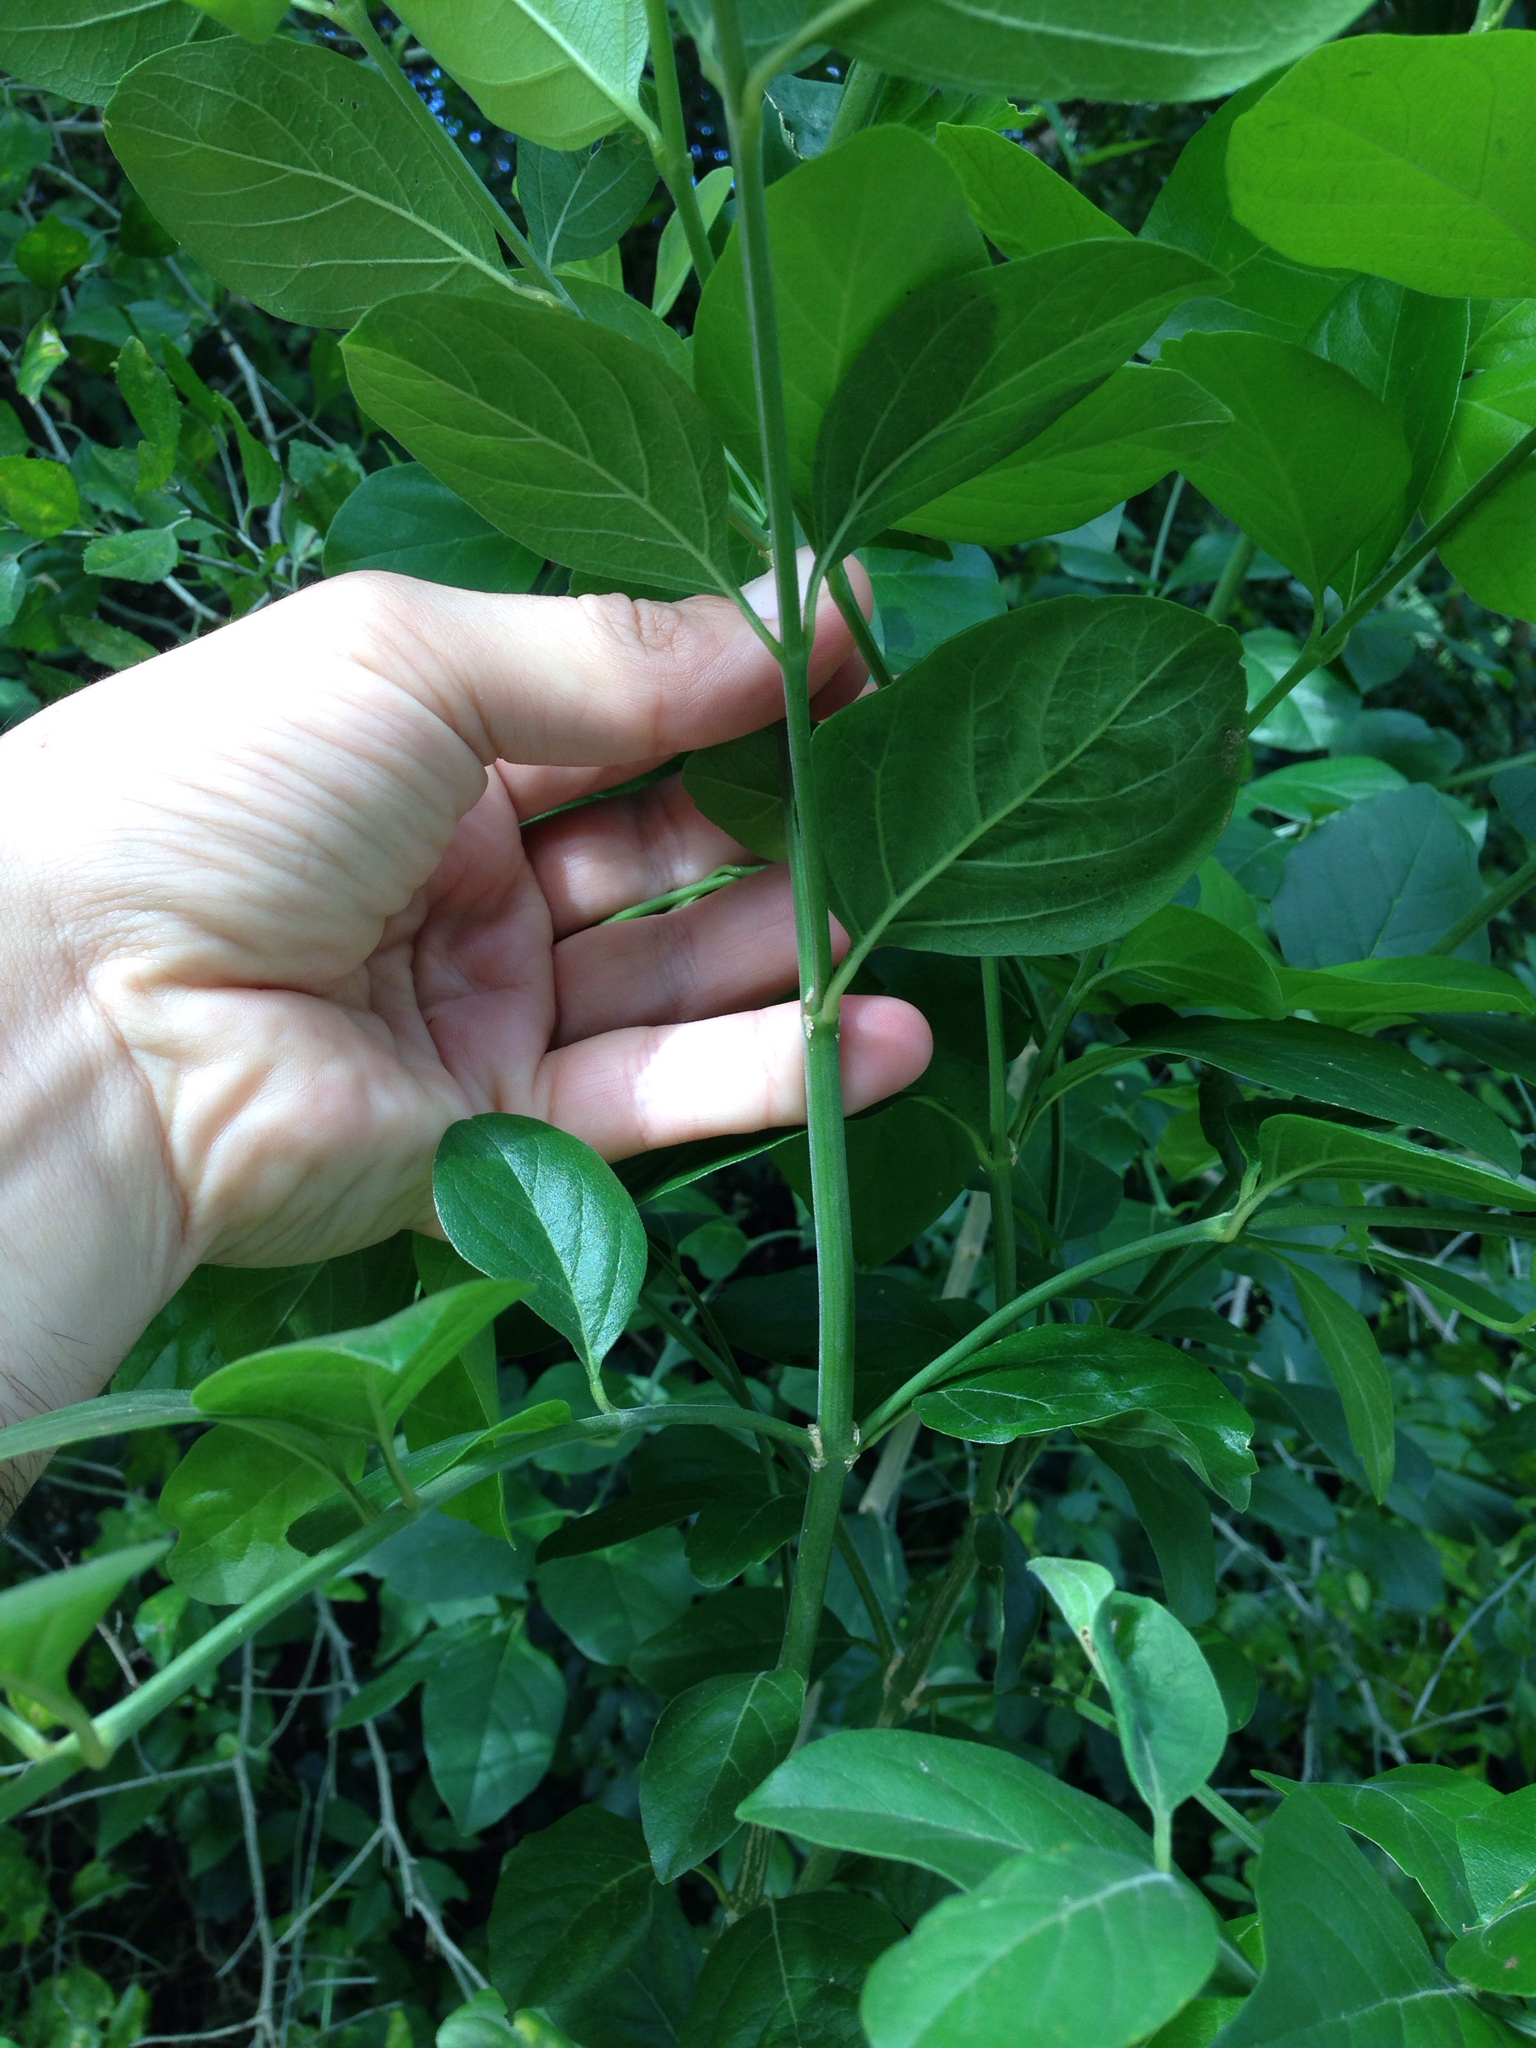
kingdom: Plantae
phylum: Tracheophyta
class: Magnoliopsida
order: Lamiales
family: Verbenaceae
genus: Citharexylum
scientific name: Citharexylum berlandieri
